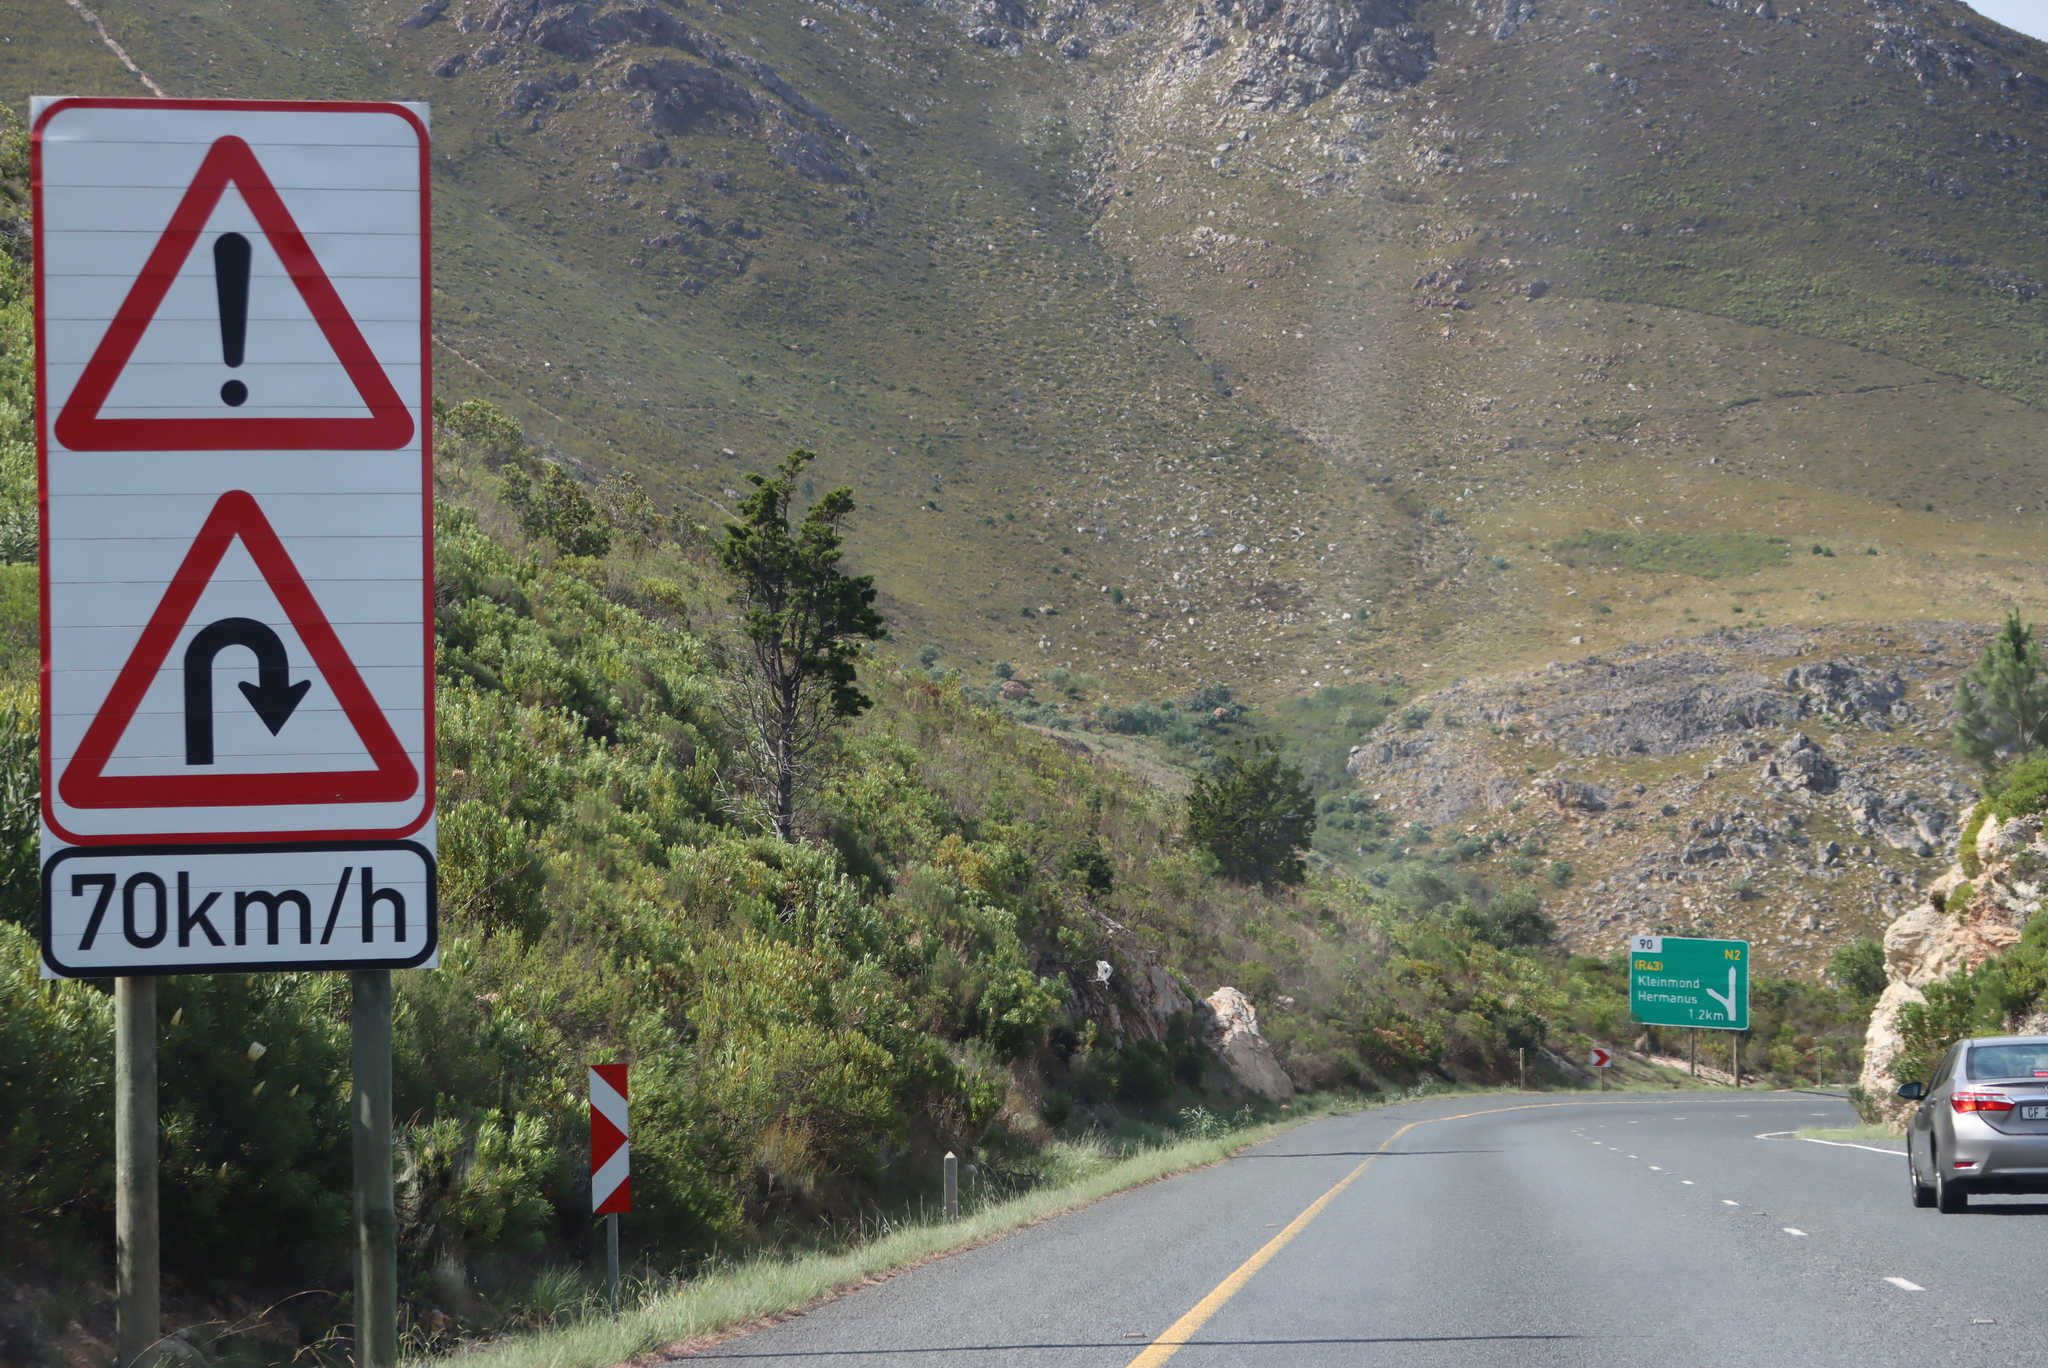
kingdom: Plantae
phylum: Tracheophyta
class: Pinopsida
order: Pinales
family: Pinaceae
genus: Pinus
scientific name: Pinus radiata
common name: Monterey pine
